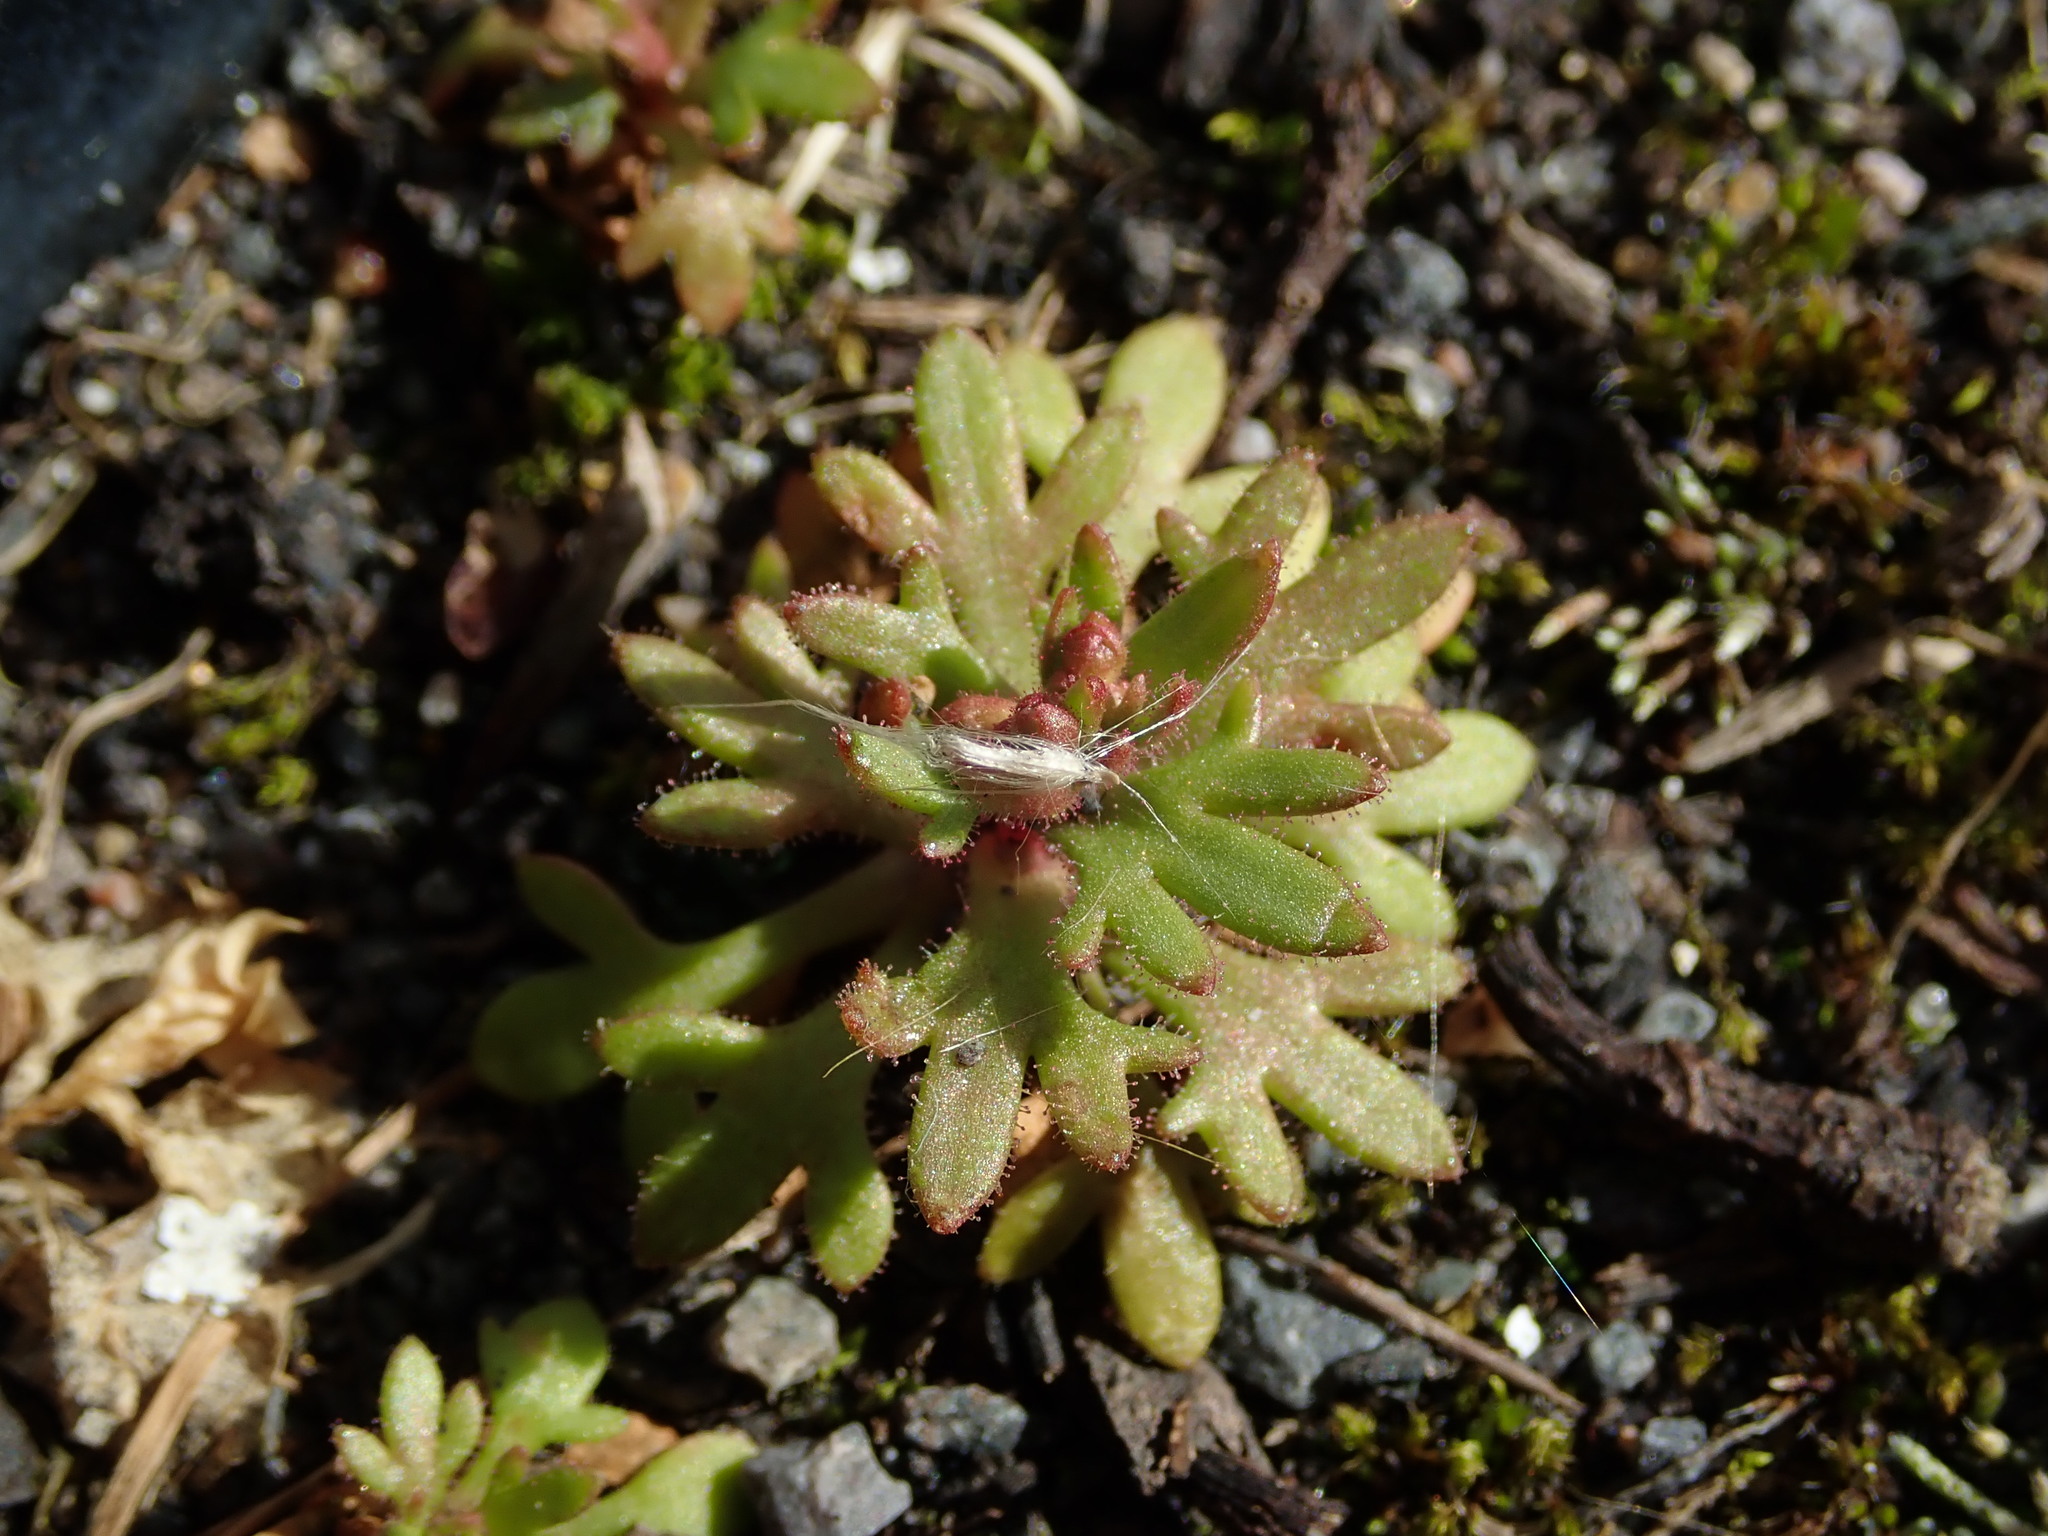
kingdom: Plantae
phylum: Tracheophyta
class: Magnoliopsida
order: Saxifragales
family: Saxifragaceae
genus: Saxifraga
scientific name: Saxifraga tridactylites
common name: Rue-leaved saxifrage
